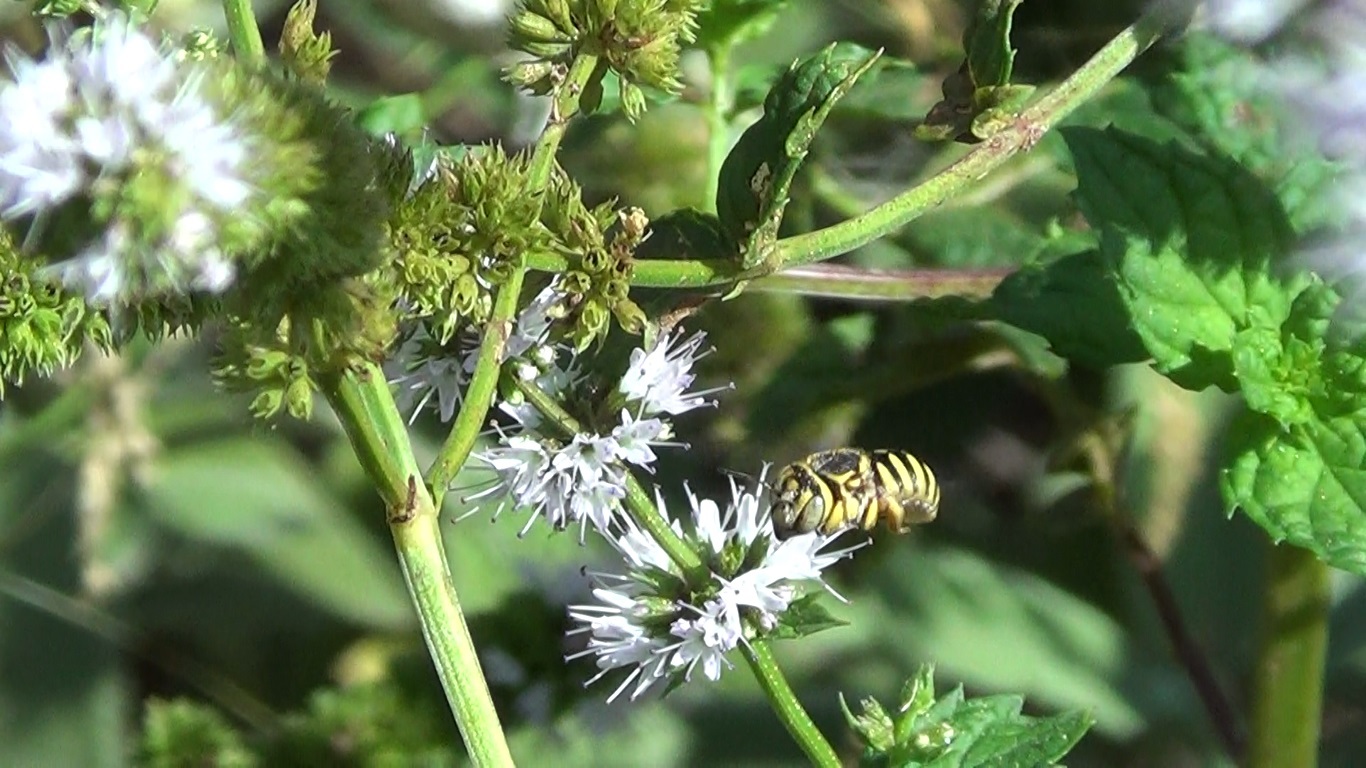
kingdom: Animalia
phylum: Arthropoda
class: Insecta
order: Hymenoptera
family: Megachilidae
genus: Icteranthidium
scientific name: Icteranthidium grohmanni
